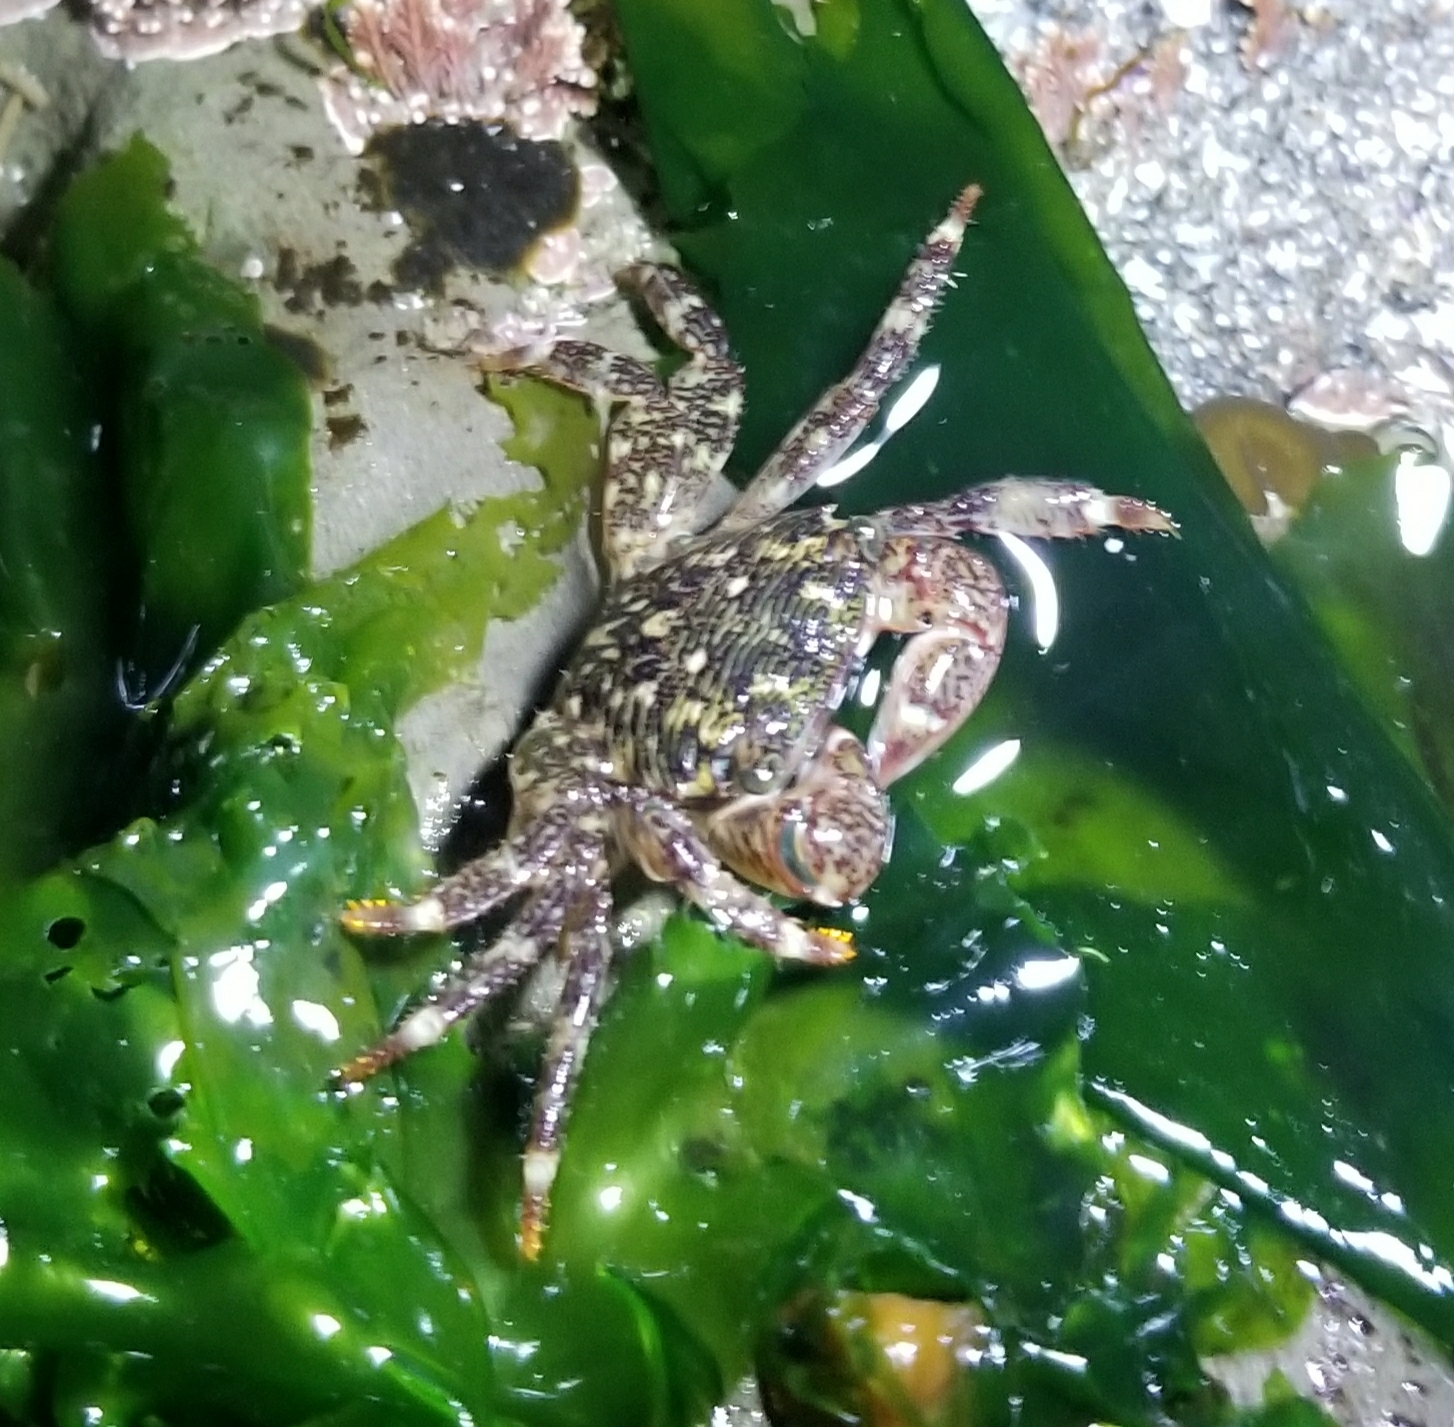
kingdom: Animalia
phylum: Arthropoda
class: Malacostraca
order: Decapoda
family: Grapsidae
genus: Pachygrapsus
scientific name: Pachygrapsus crassipes
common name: Striped shore crab
